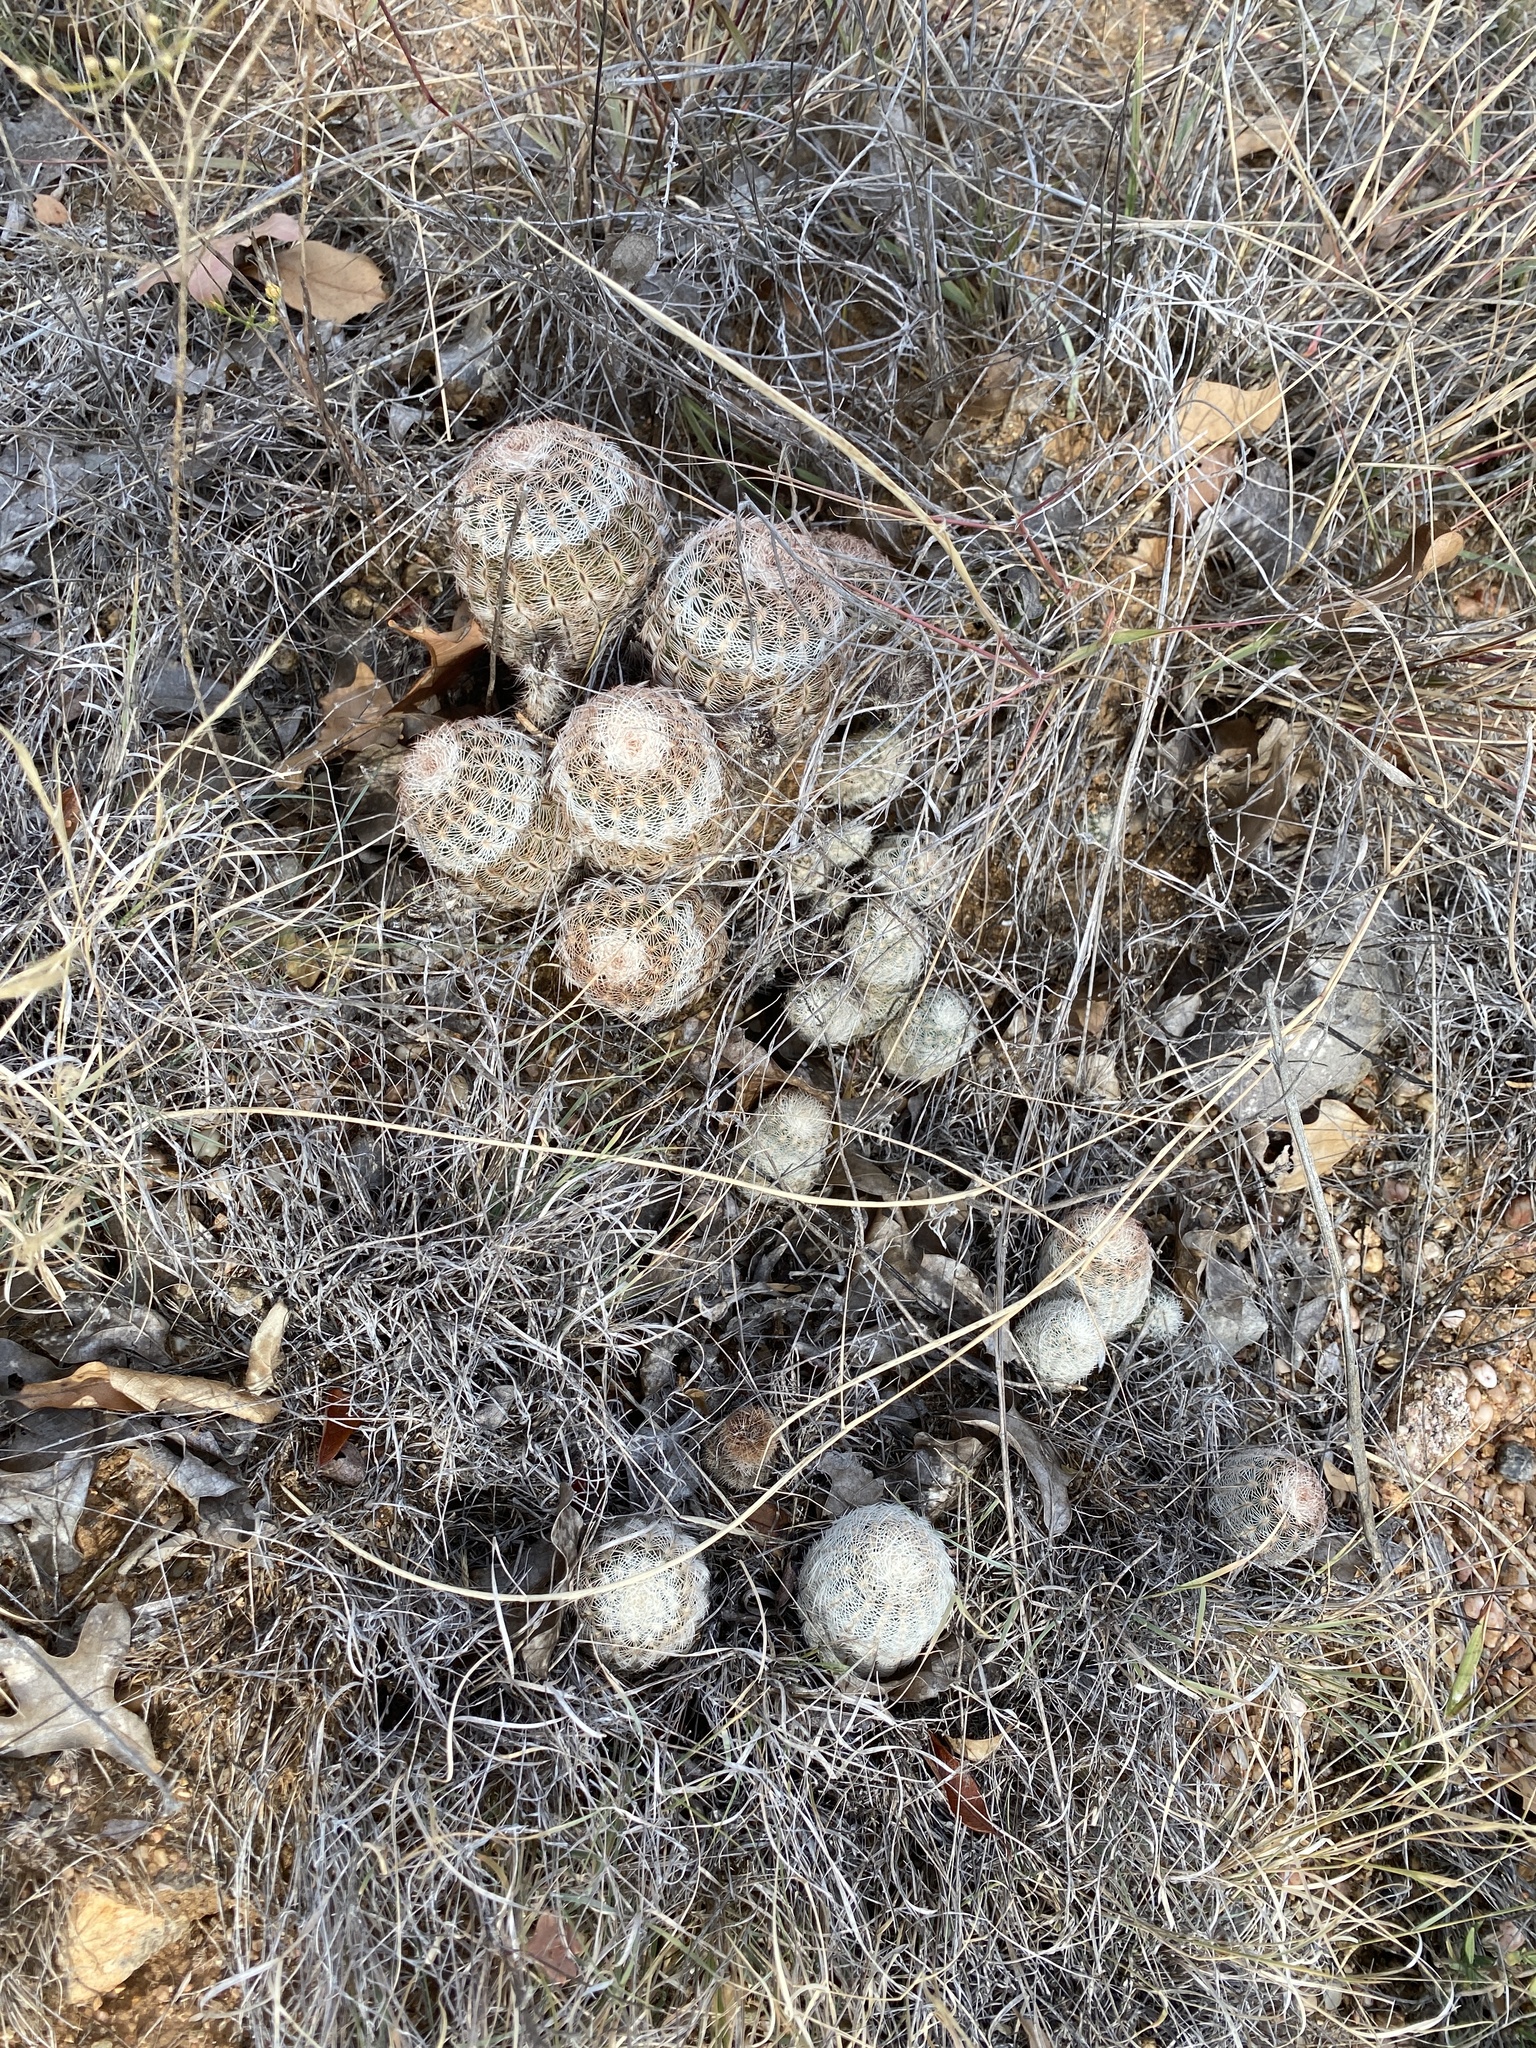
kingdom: Plantae
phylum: Tracheophyta
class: Magnoliopsida
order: Caryophyllales
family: Cactaceae
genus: Echinocereus
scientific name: Echinocereus reichenbachii
